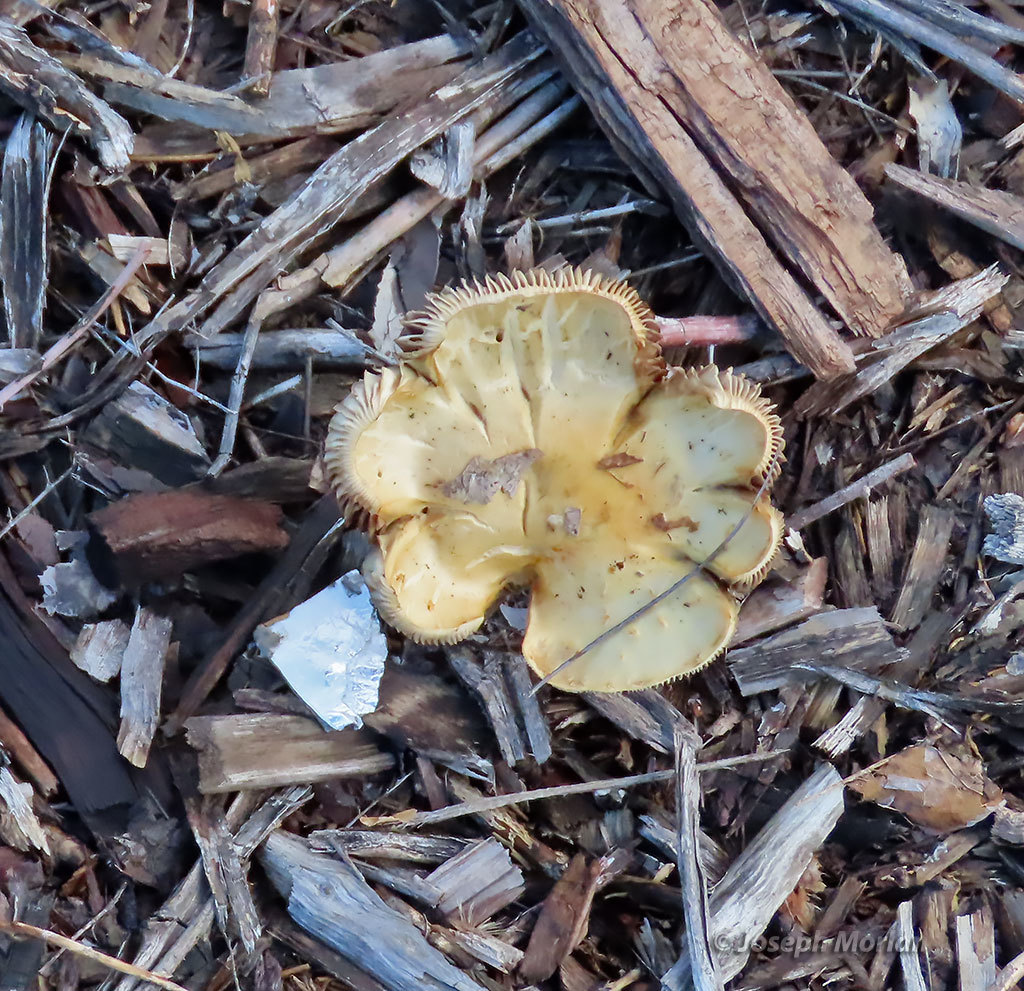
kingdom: Fungi
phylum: Basidiomycota
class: Agaricomycetes
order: Agaricales
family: Strophariaceae
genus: Leratiomyces
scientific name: Leratiomyces percevalii
